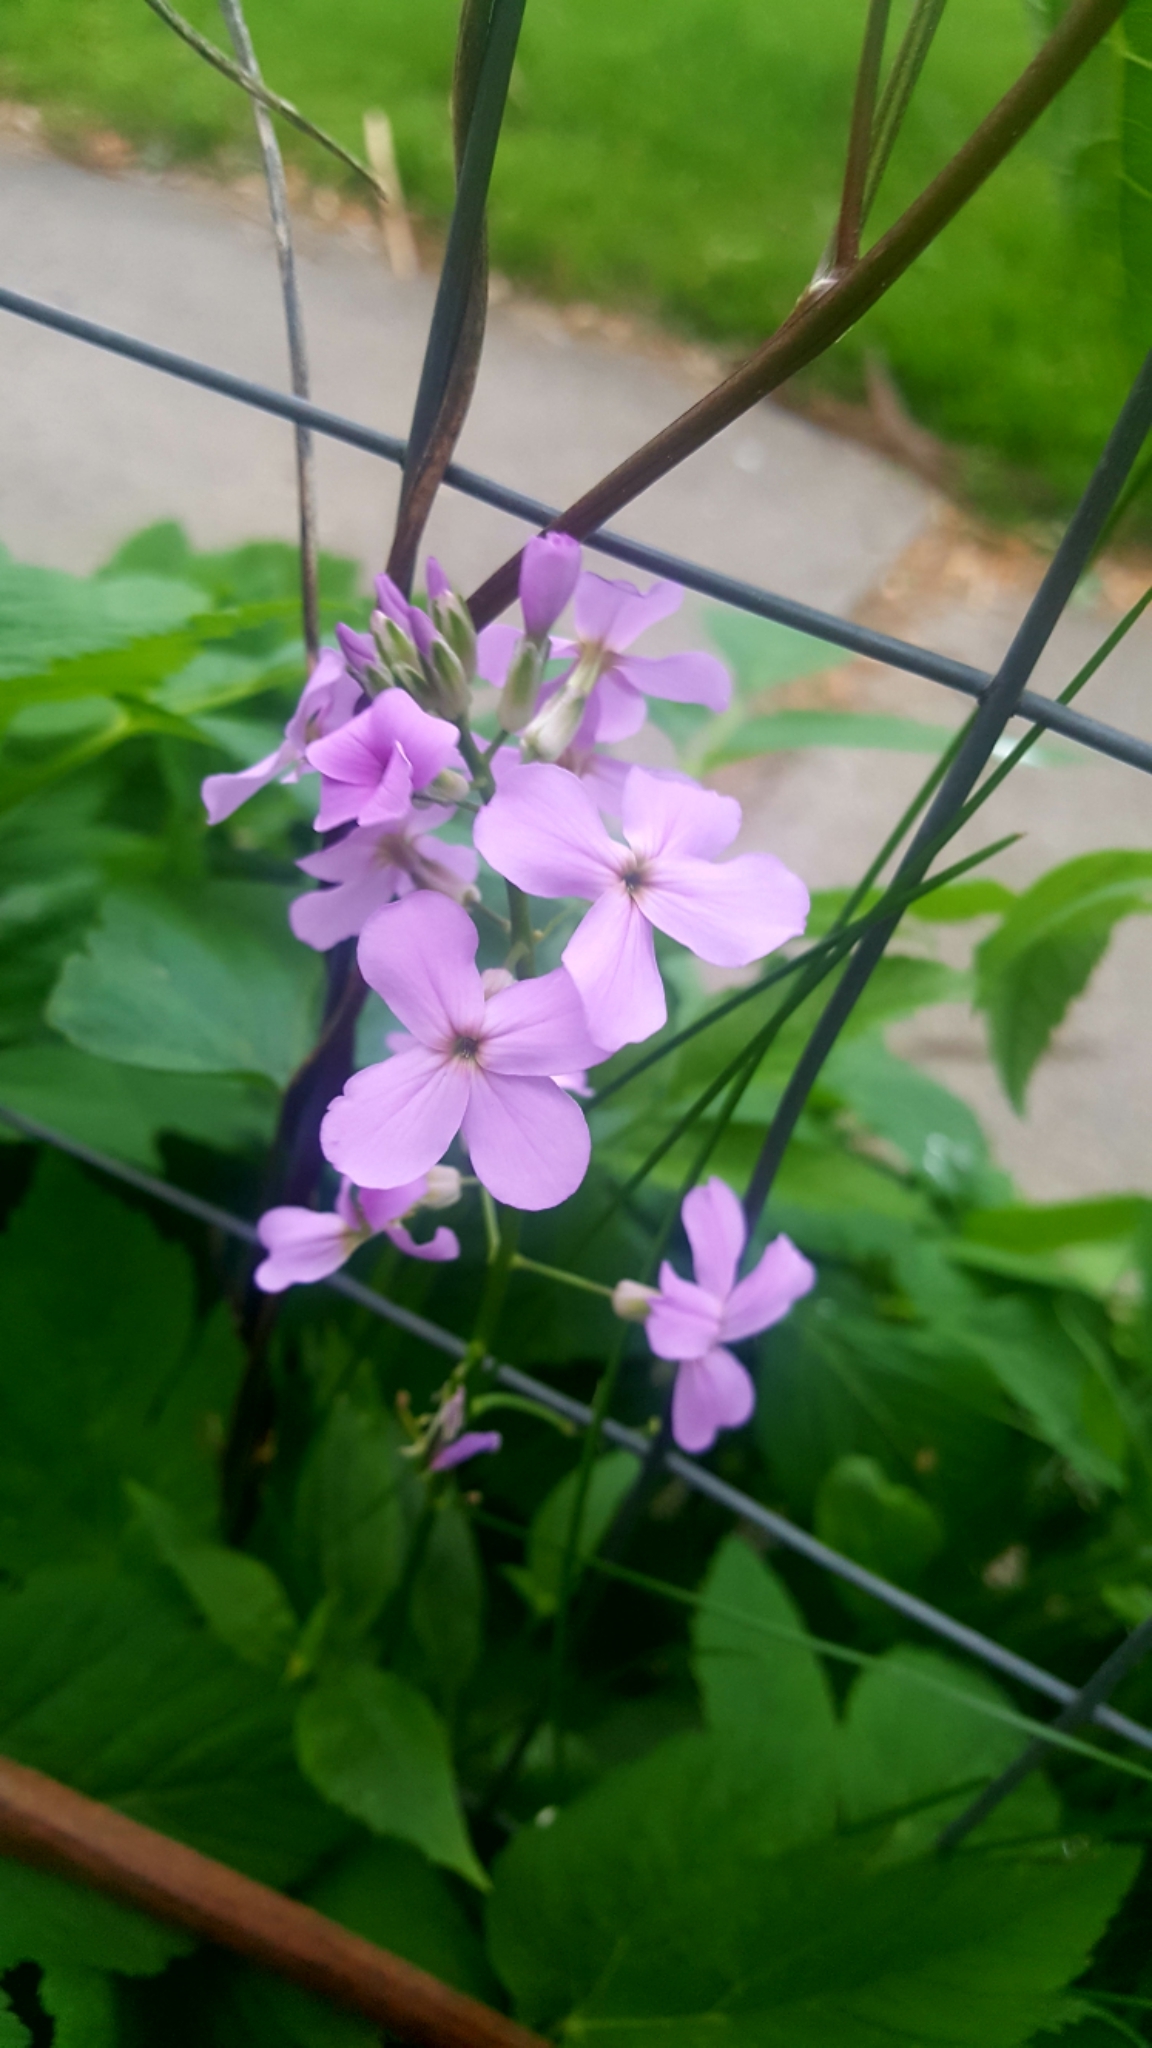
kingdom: Plantae
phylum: Tracheophyta
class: Magnoliopsida
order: Brassicales
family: Brassicaceae
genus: Hesperis
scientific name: Hesperis matronalis
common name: Dame's-violet
